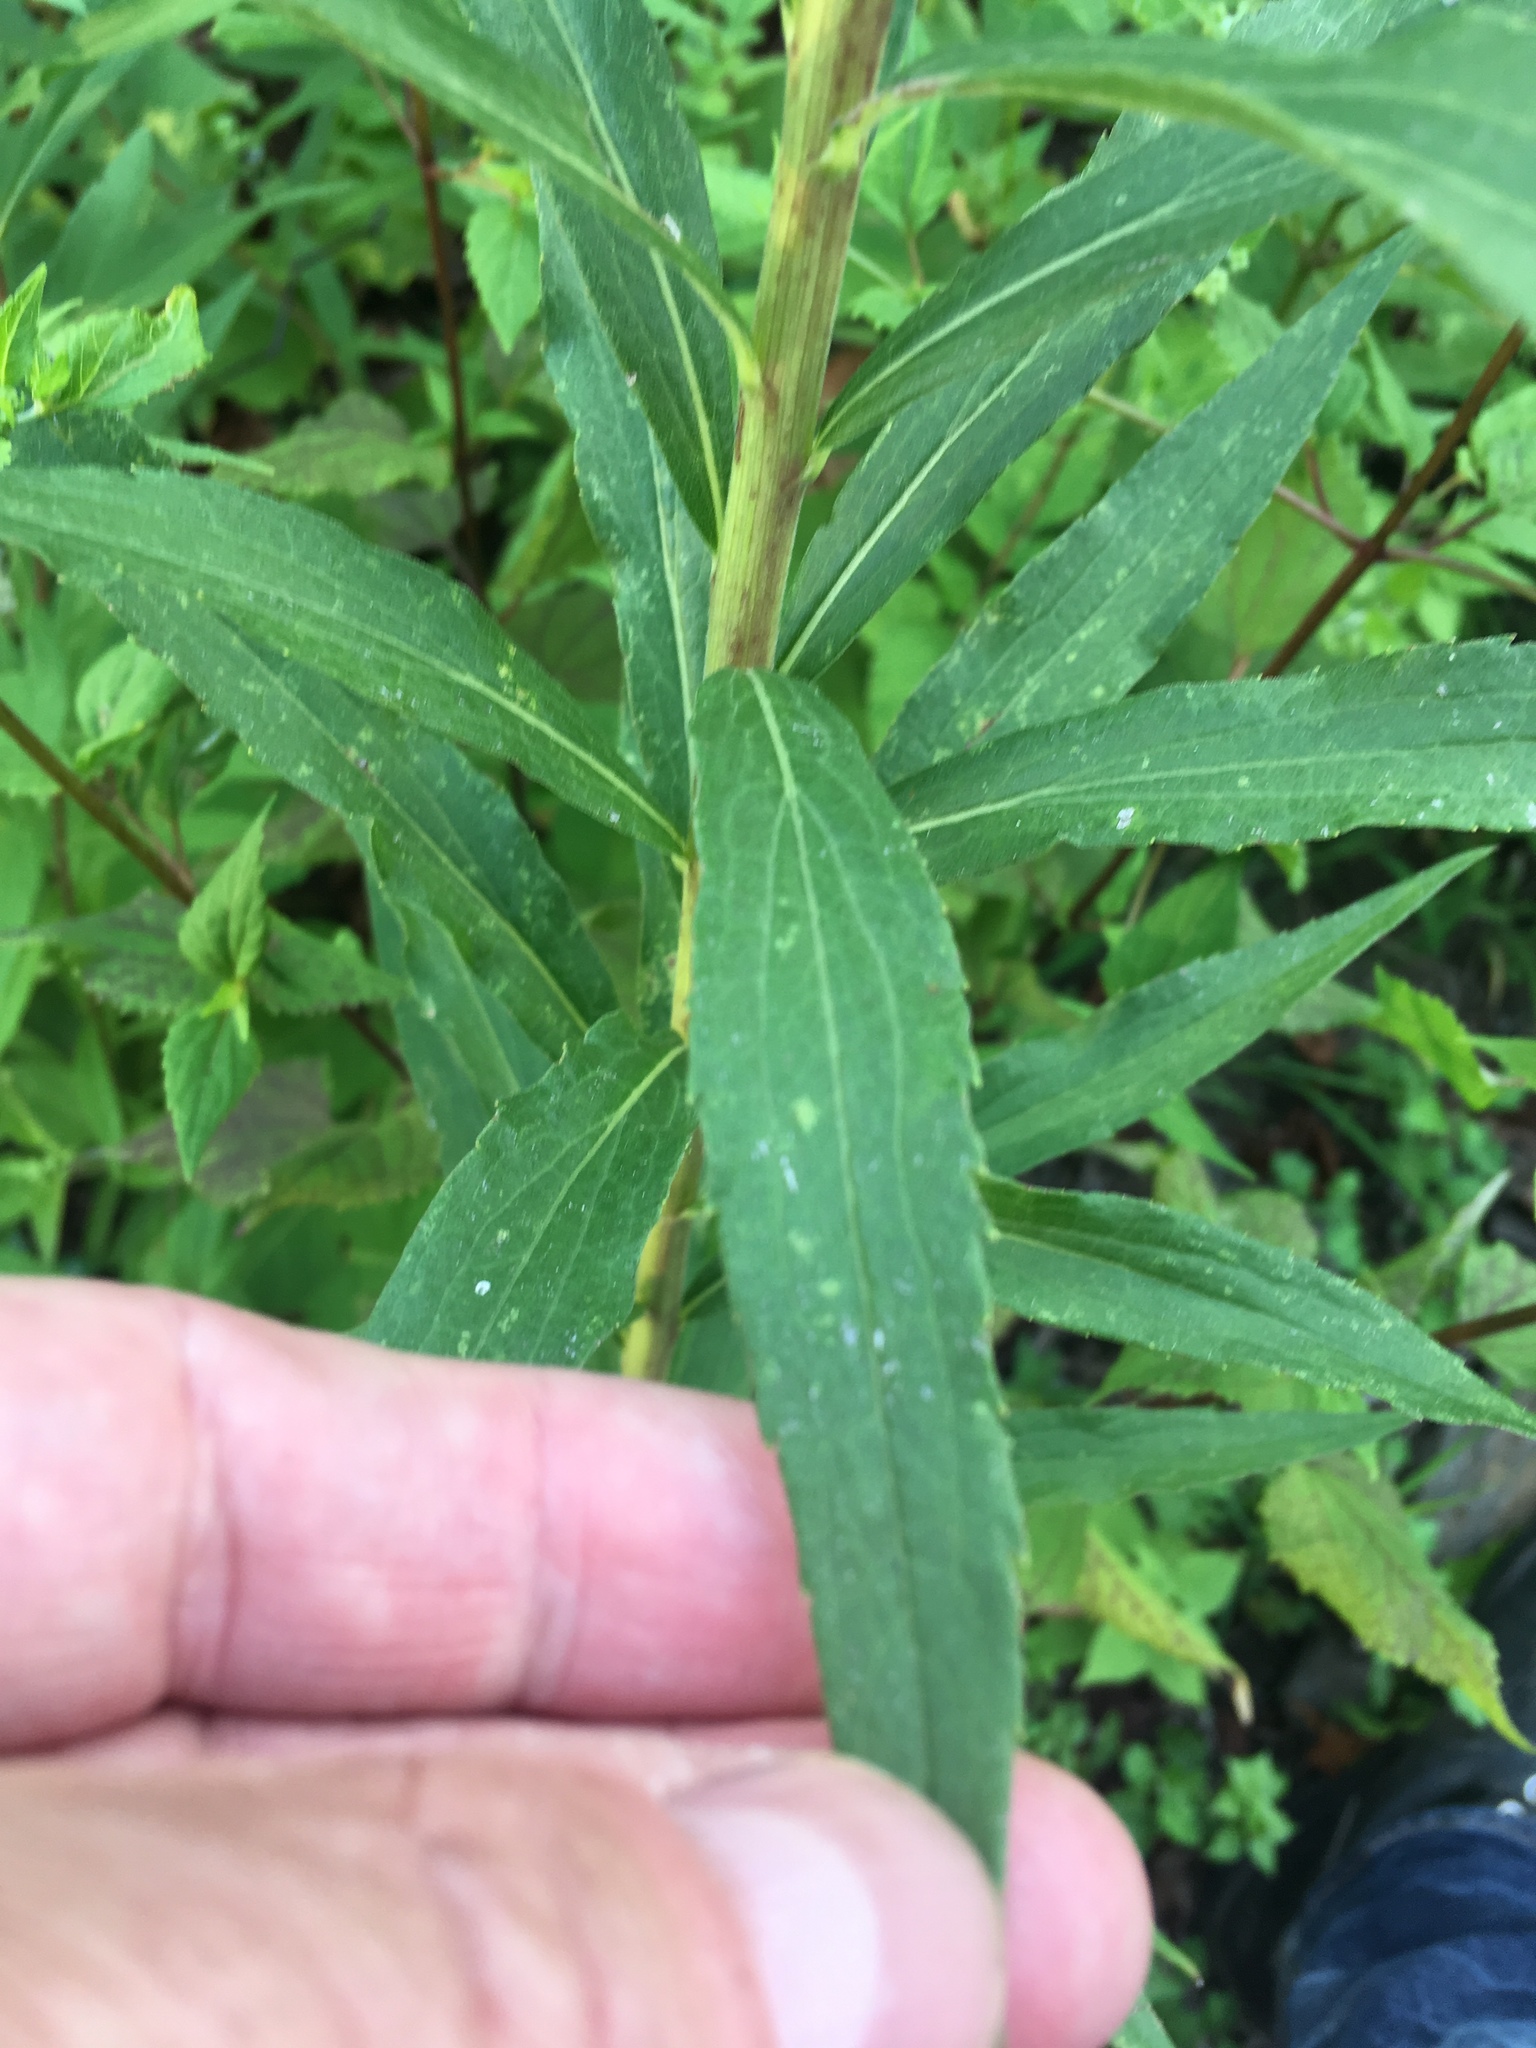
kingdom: Plantae
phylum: Tracheophyta
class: Magnoliopsida
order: Asterales
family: Asteraceae
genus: Solidago
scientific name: Solidago altissima
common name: Late goldenrod
